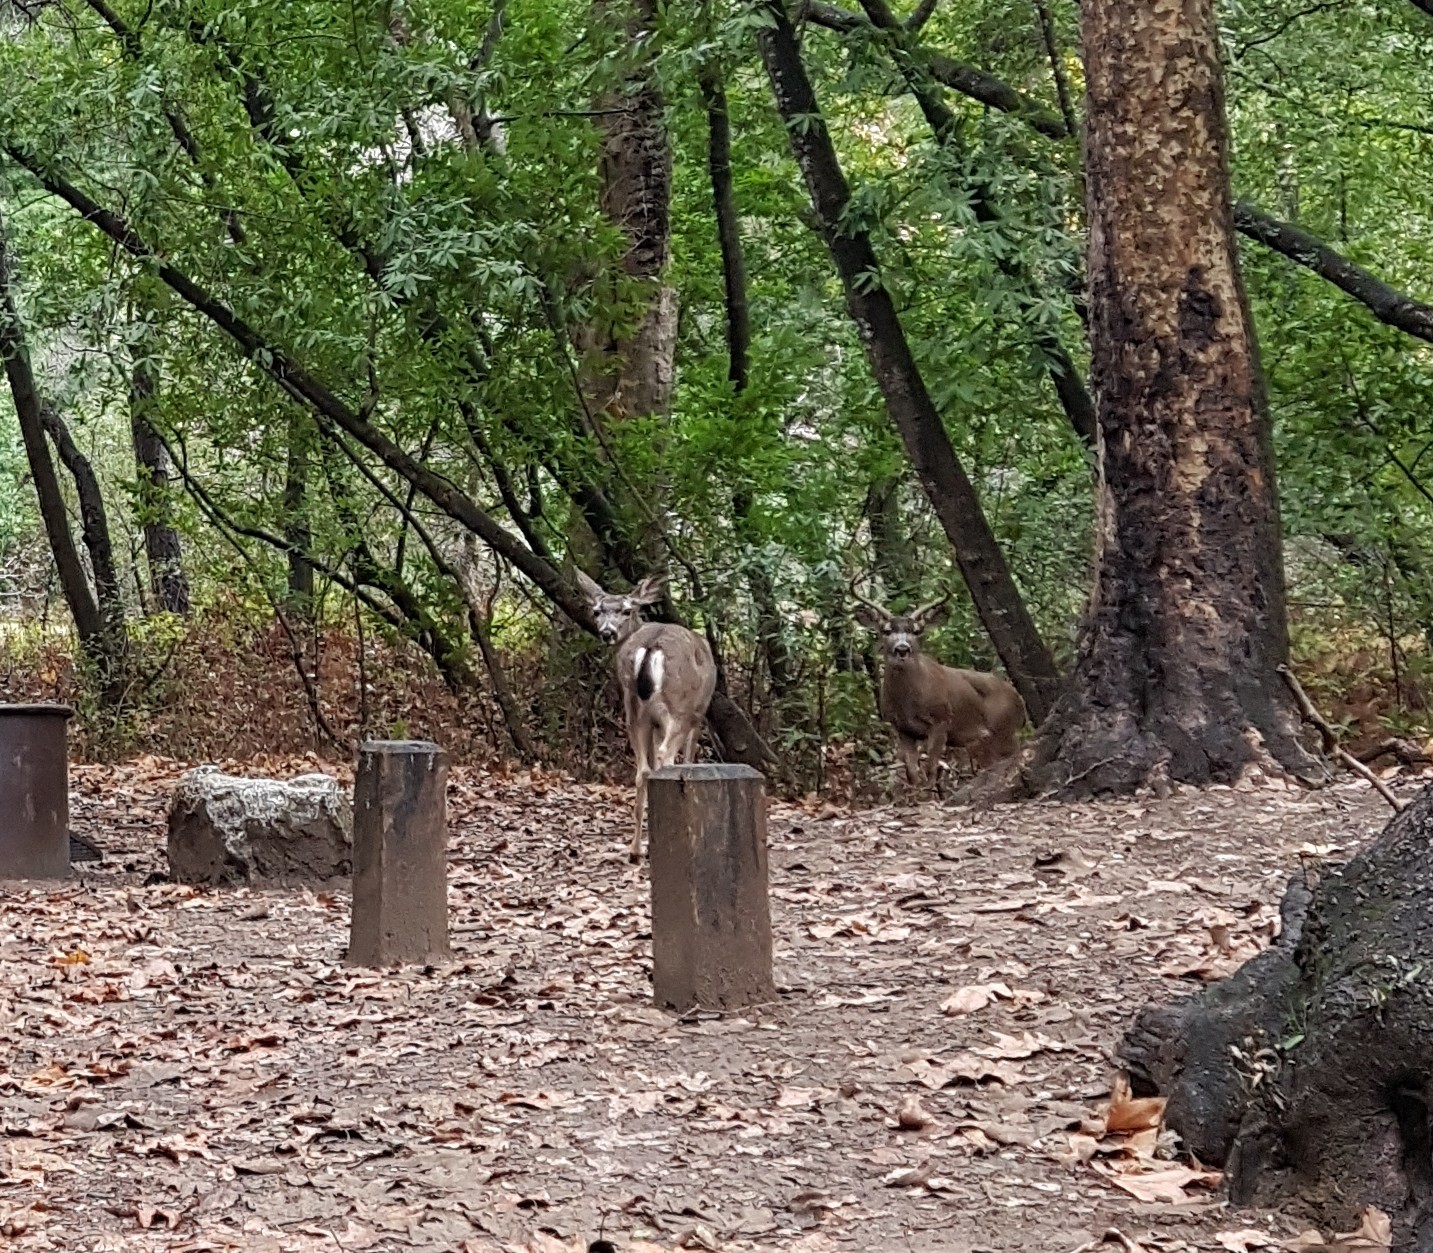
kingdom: Animalia
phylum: Chordata
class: Mammalia
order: Artiodactyla
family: Cervidae
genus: Odocoileus
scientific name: Odocoileus hemionus
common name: Mule deer
